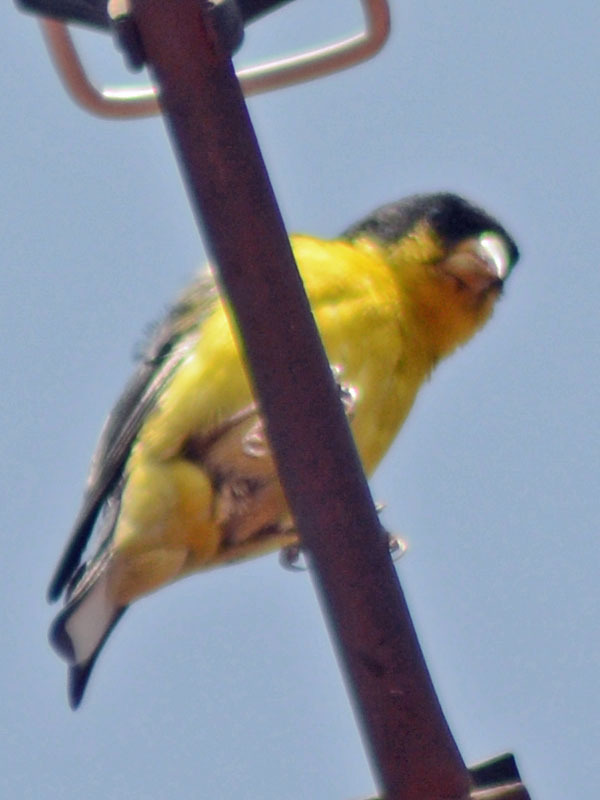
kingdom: Animalia
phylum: Chordata
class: Aves
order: Passeriformes
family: Fringillidae
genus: Spinus
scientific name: Spinus psaltria
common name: Lesser goldfinch
